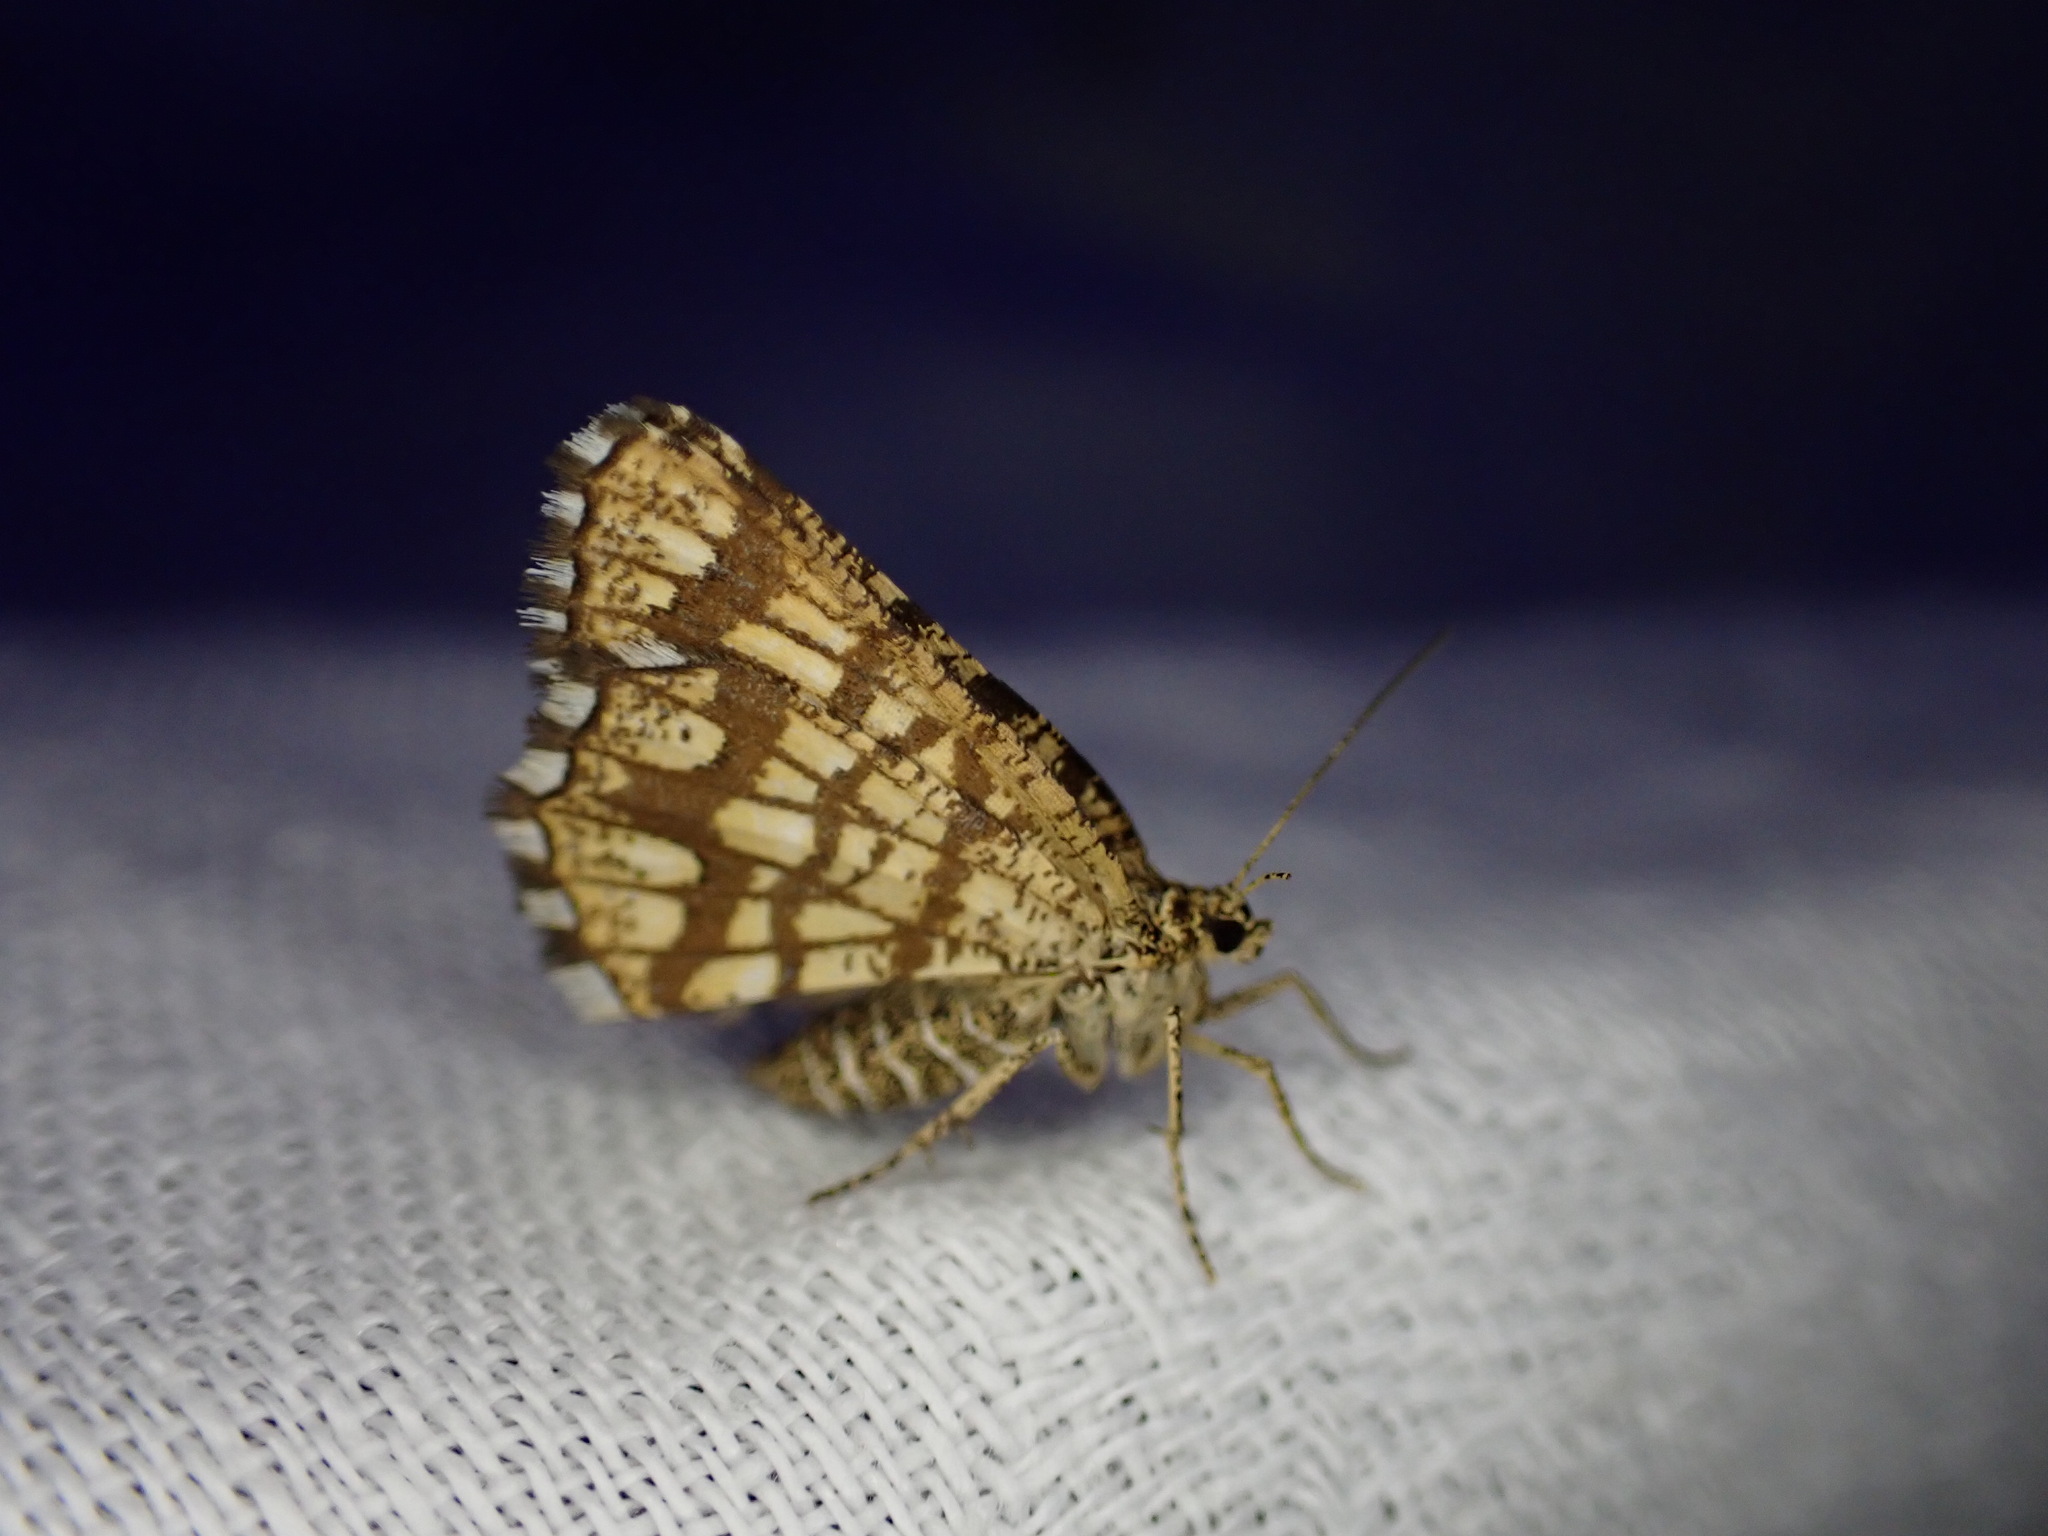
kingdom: Animalia
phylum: Arthropoda
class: Insecta
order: Lepidoptera
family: Geometridae
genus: Chiasmia
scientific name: Chiasmia clathrata
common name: Latticed heath
